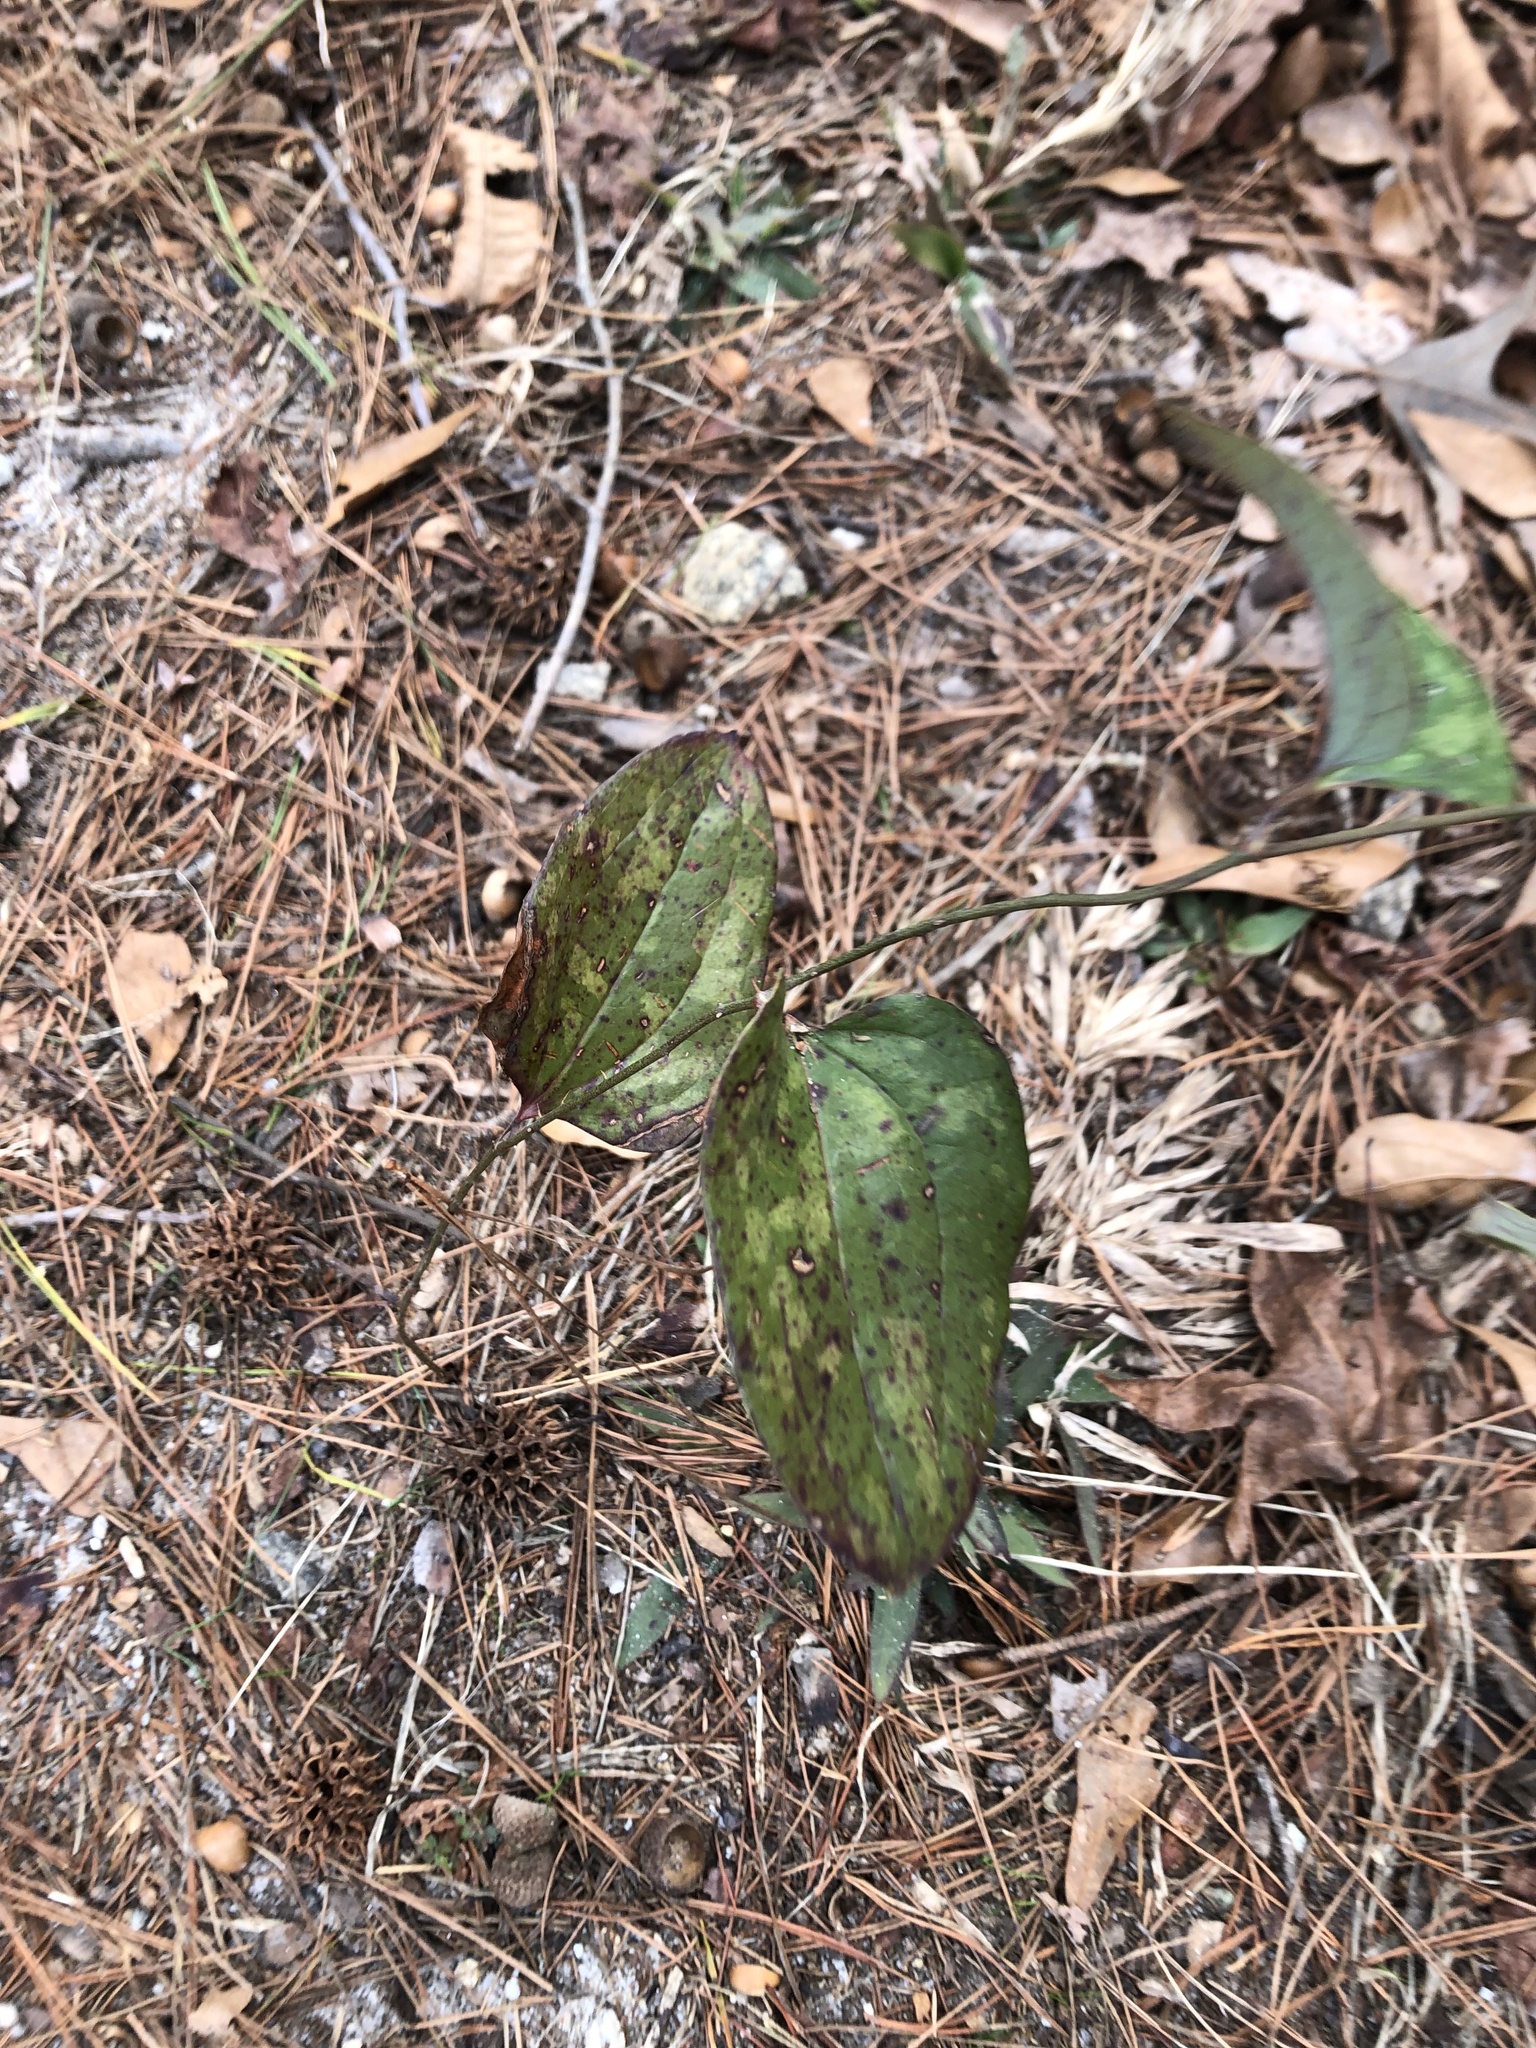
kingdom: Plantae
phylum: Tracheophyta
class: Liliopsida
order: Liliales
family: Smilacaceae
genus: Smilax
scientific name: Smilax glauca
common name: Cat greenbrier
